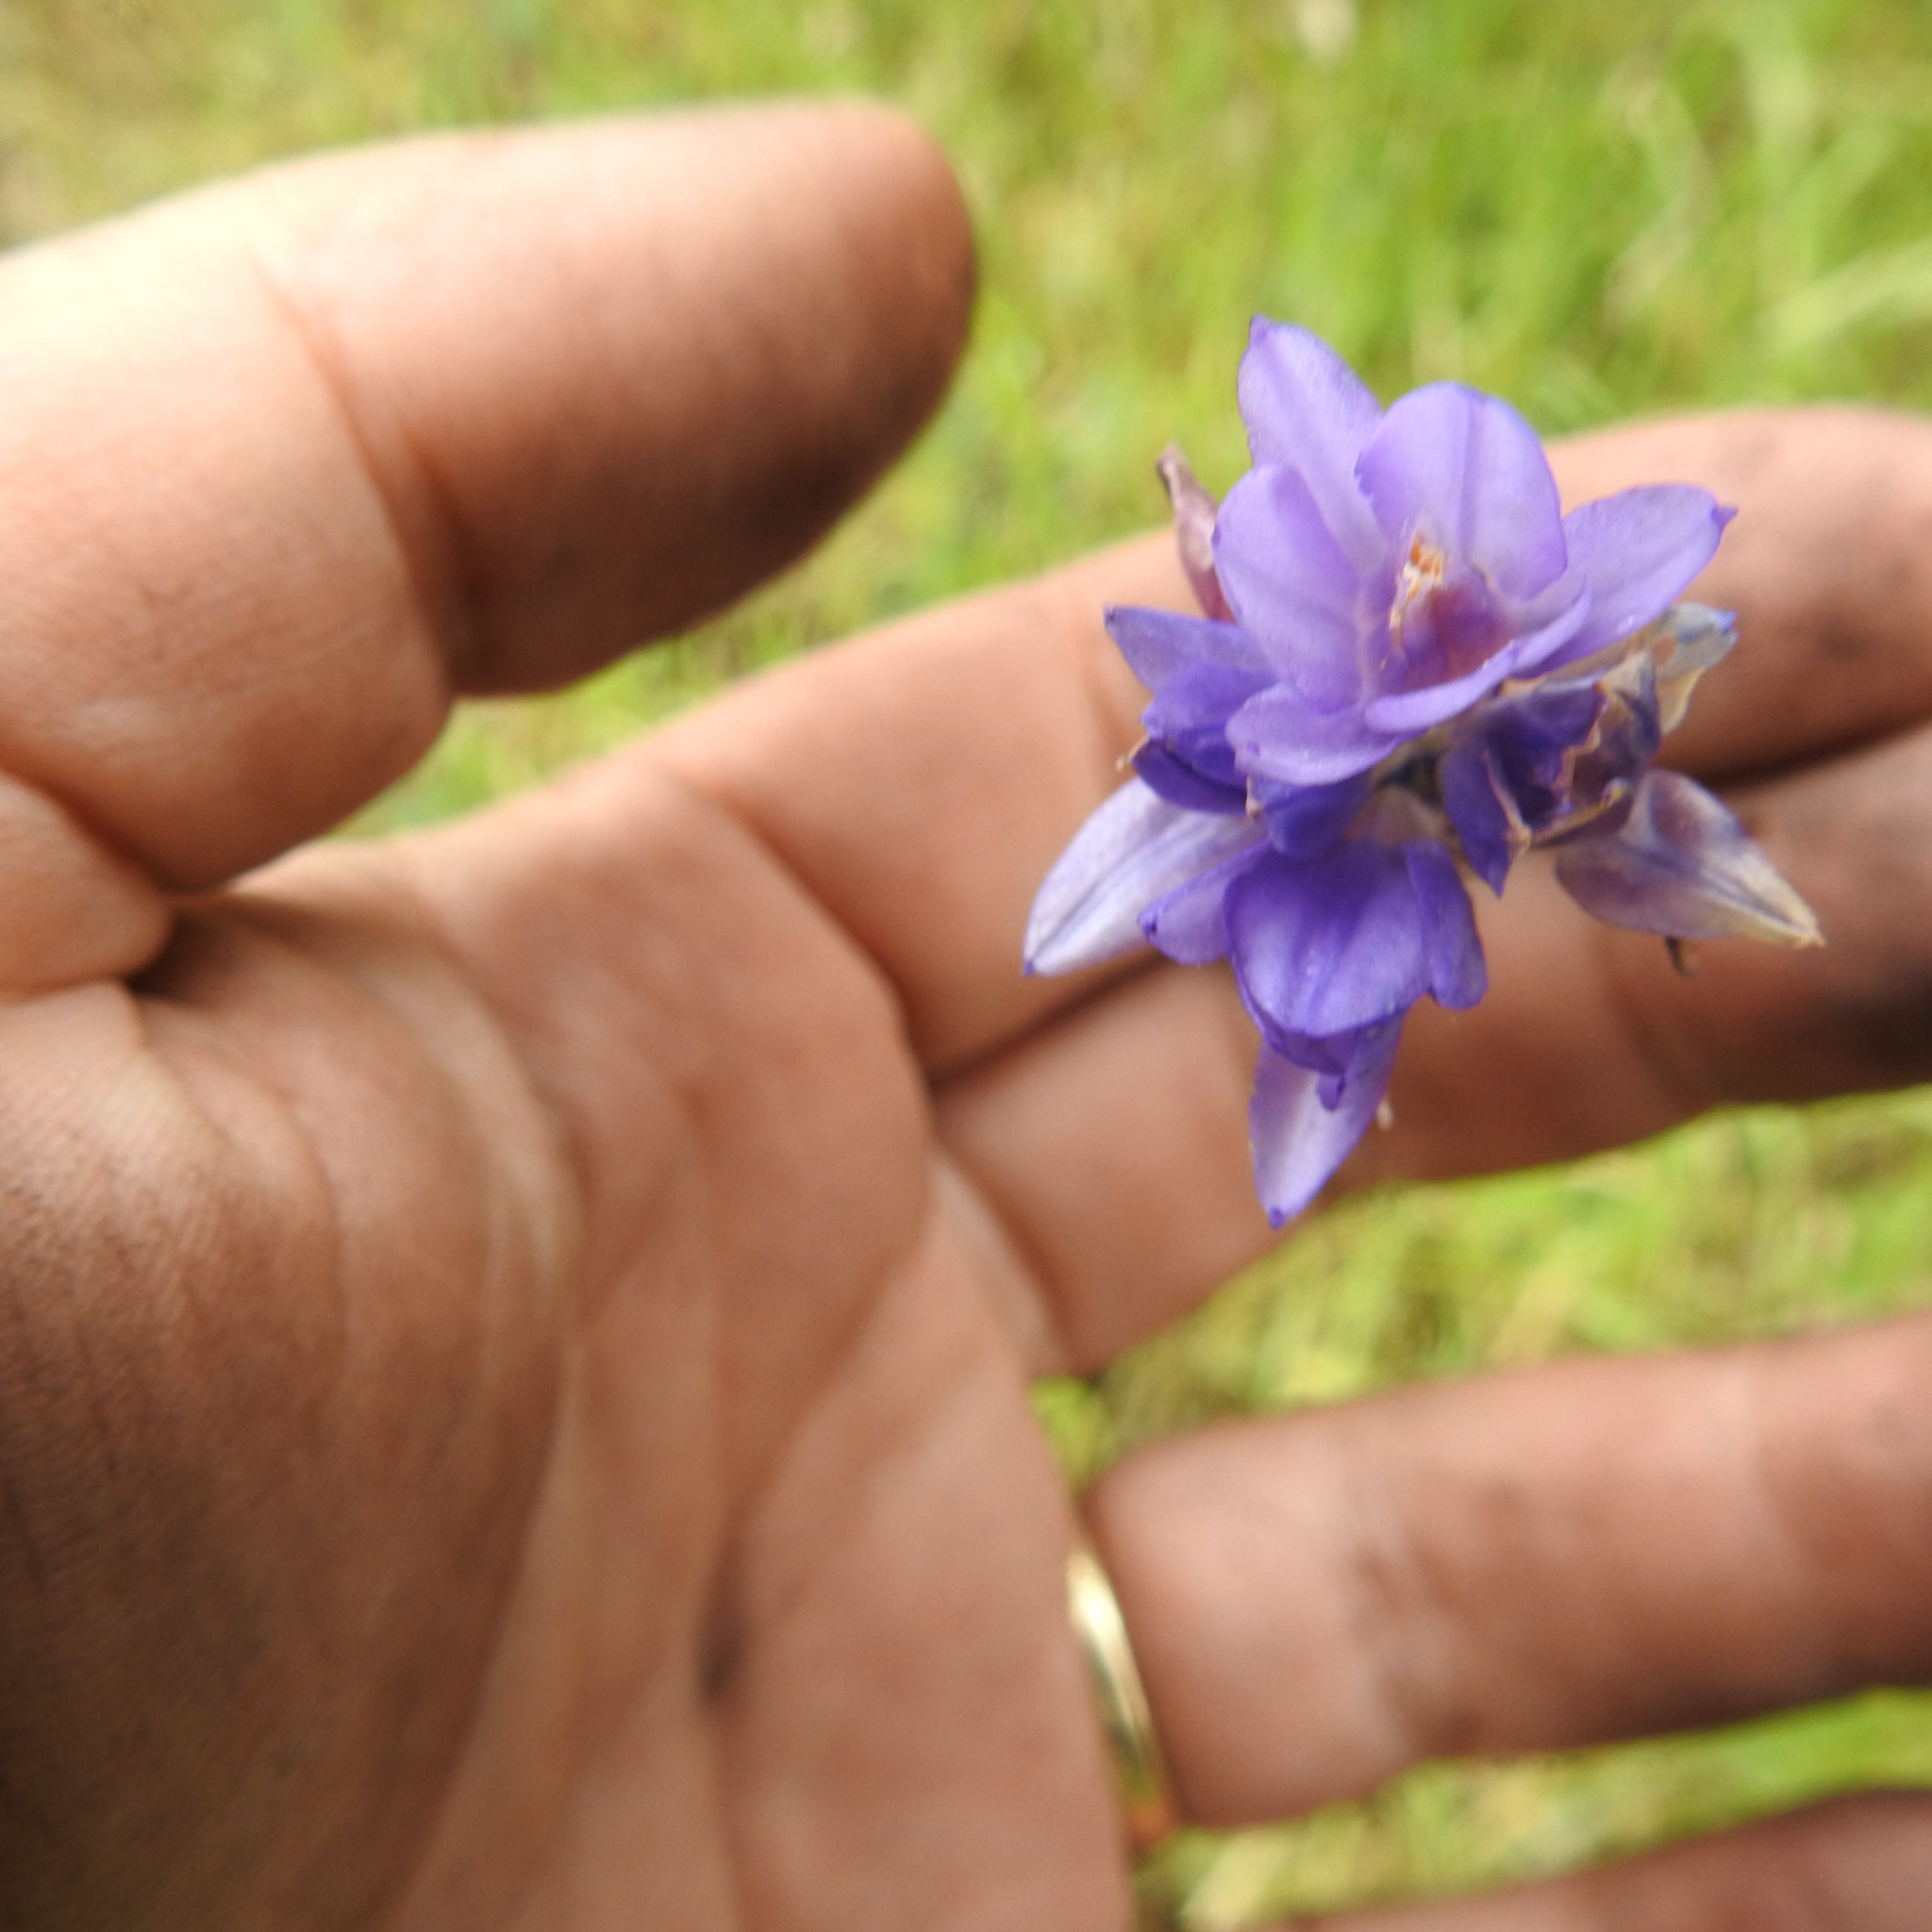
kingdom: Plantae
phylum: Tracheophyta
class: Liliopsida
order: Asparagales
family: Asparagaceae
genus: Dipterostemon
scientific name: Dipterostemon capitatus
